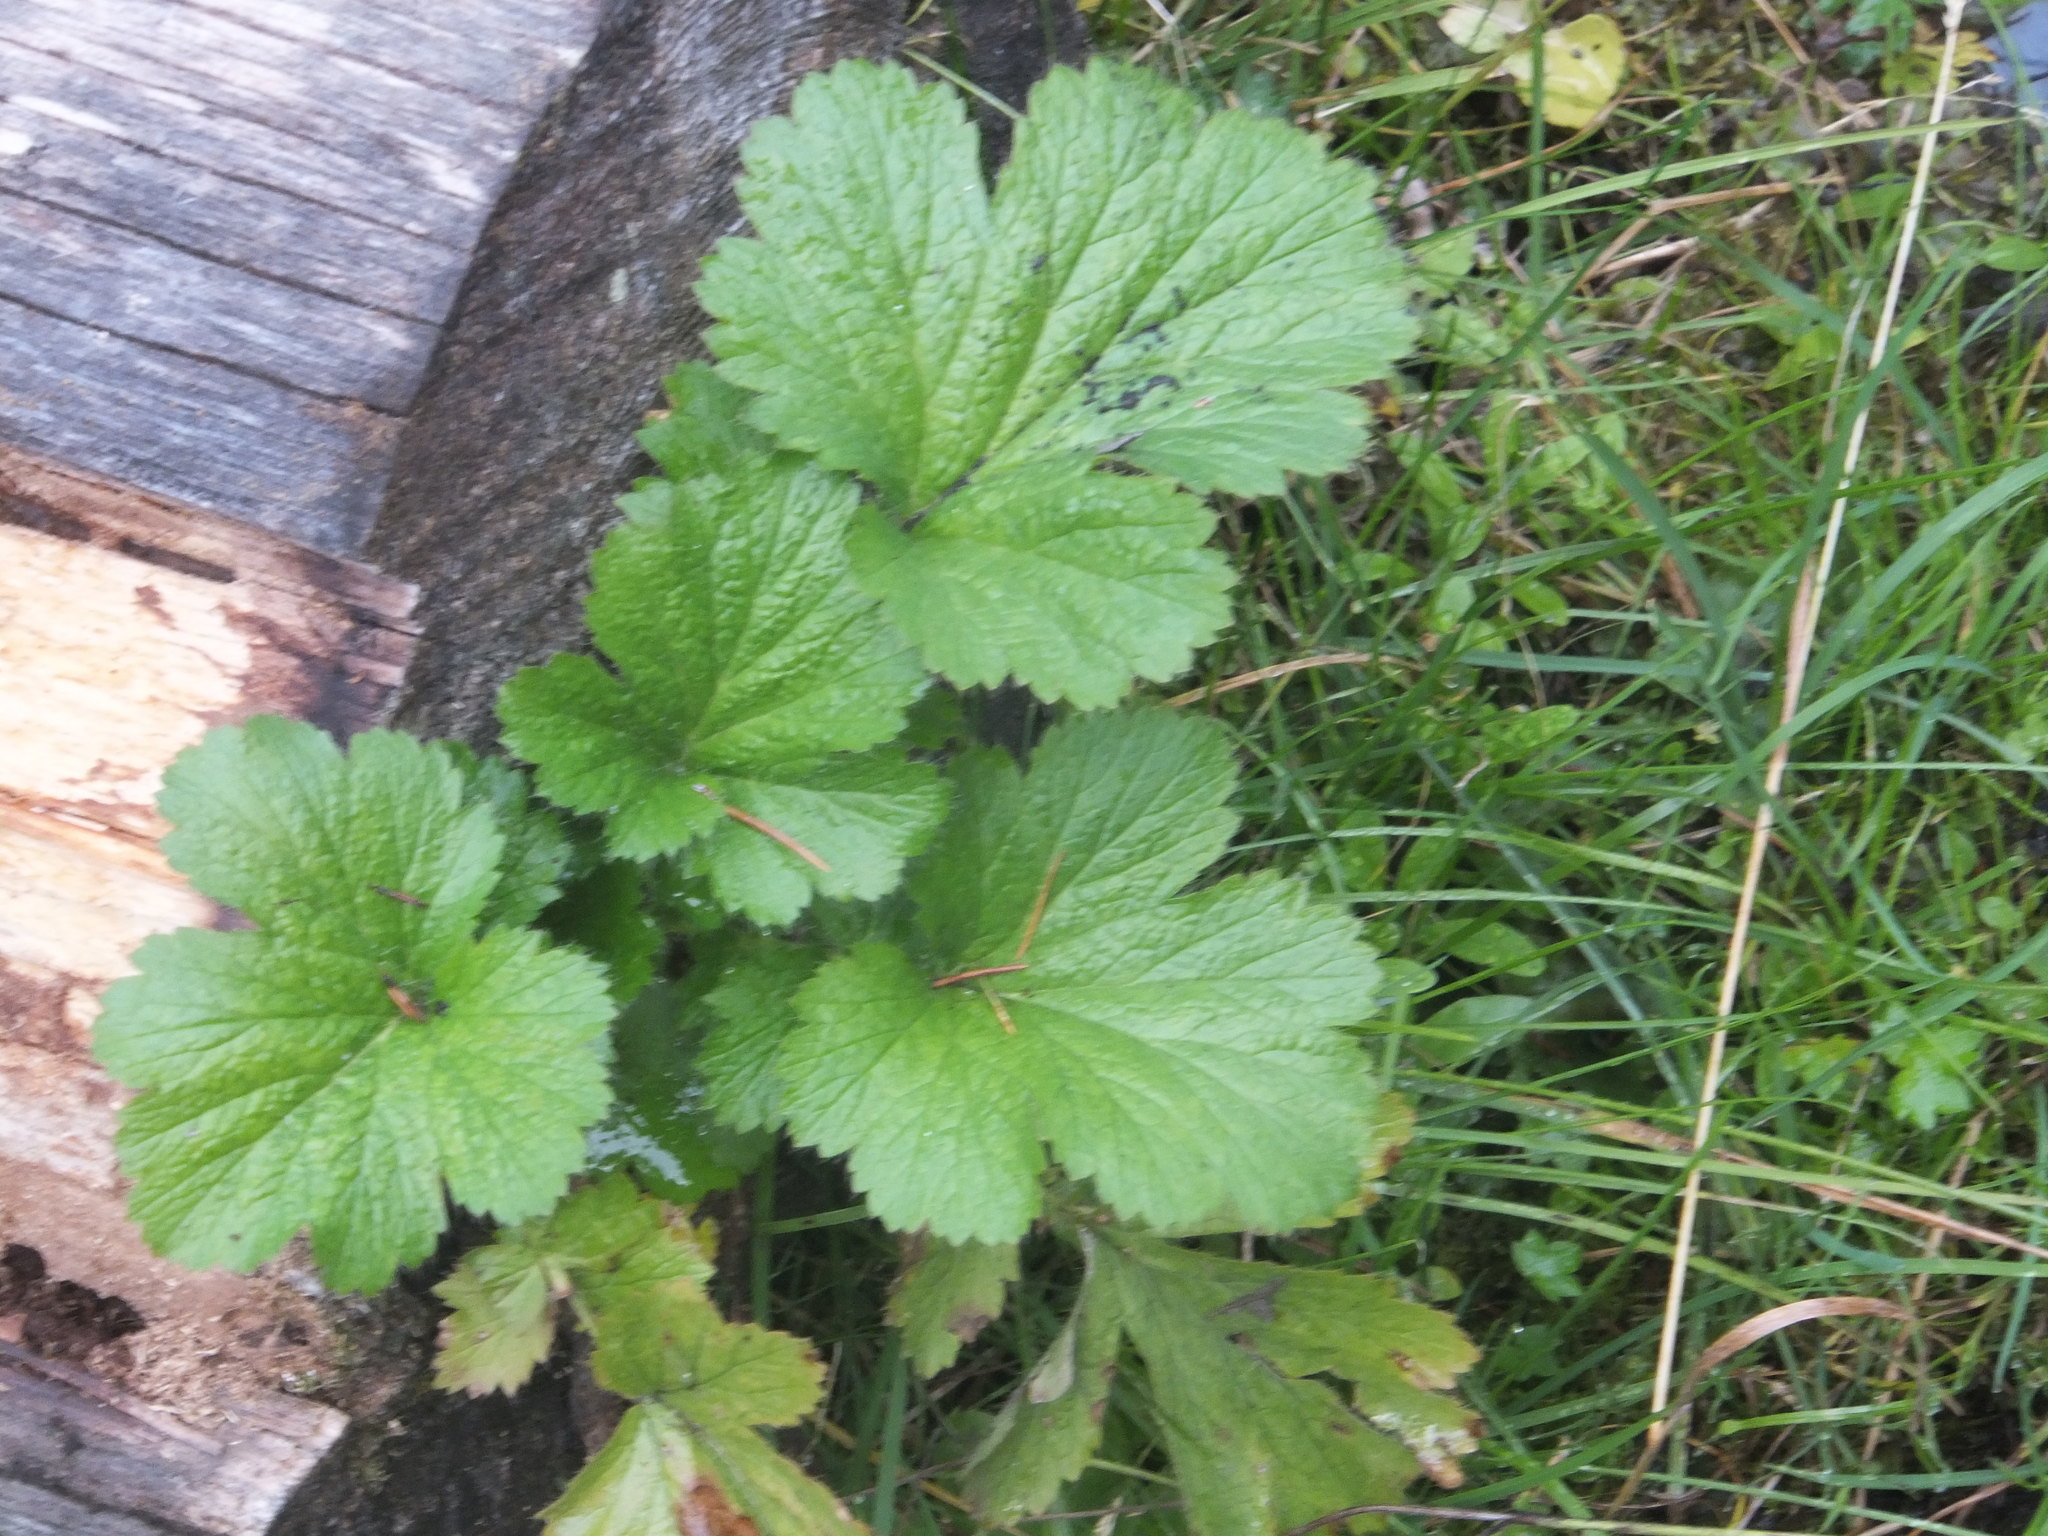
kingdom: Plantae
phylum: Tracheophyta
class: Magnoliopsida
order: Rosales
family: Rosaceae
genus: Geum
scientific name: Geum macrophyllum
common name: Large-leaved avens
